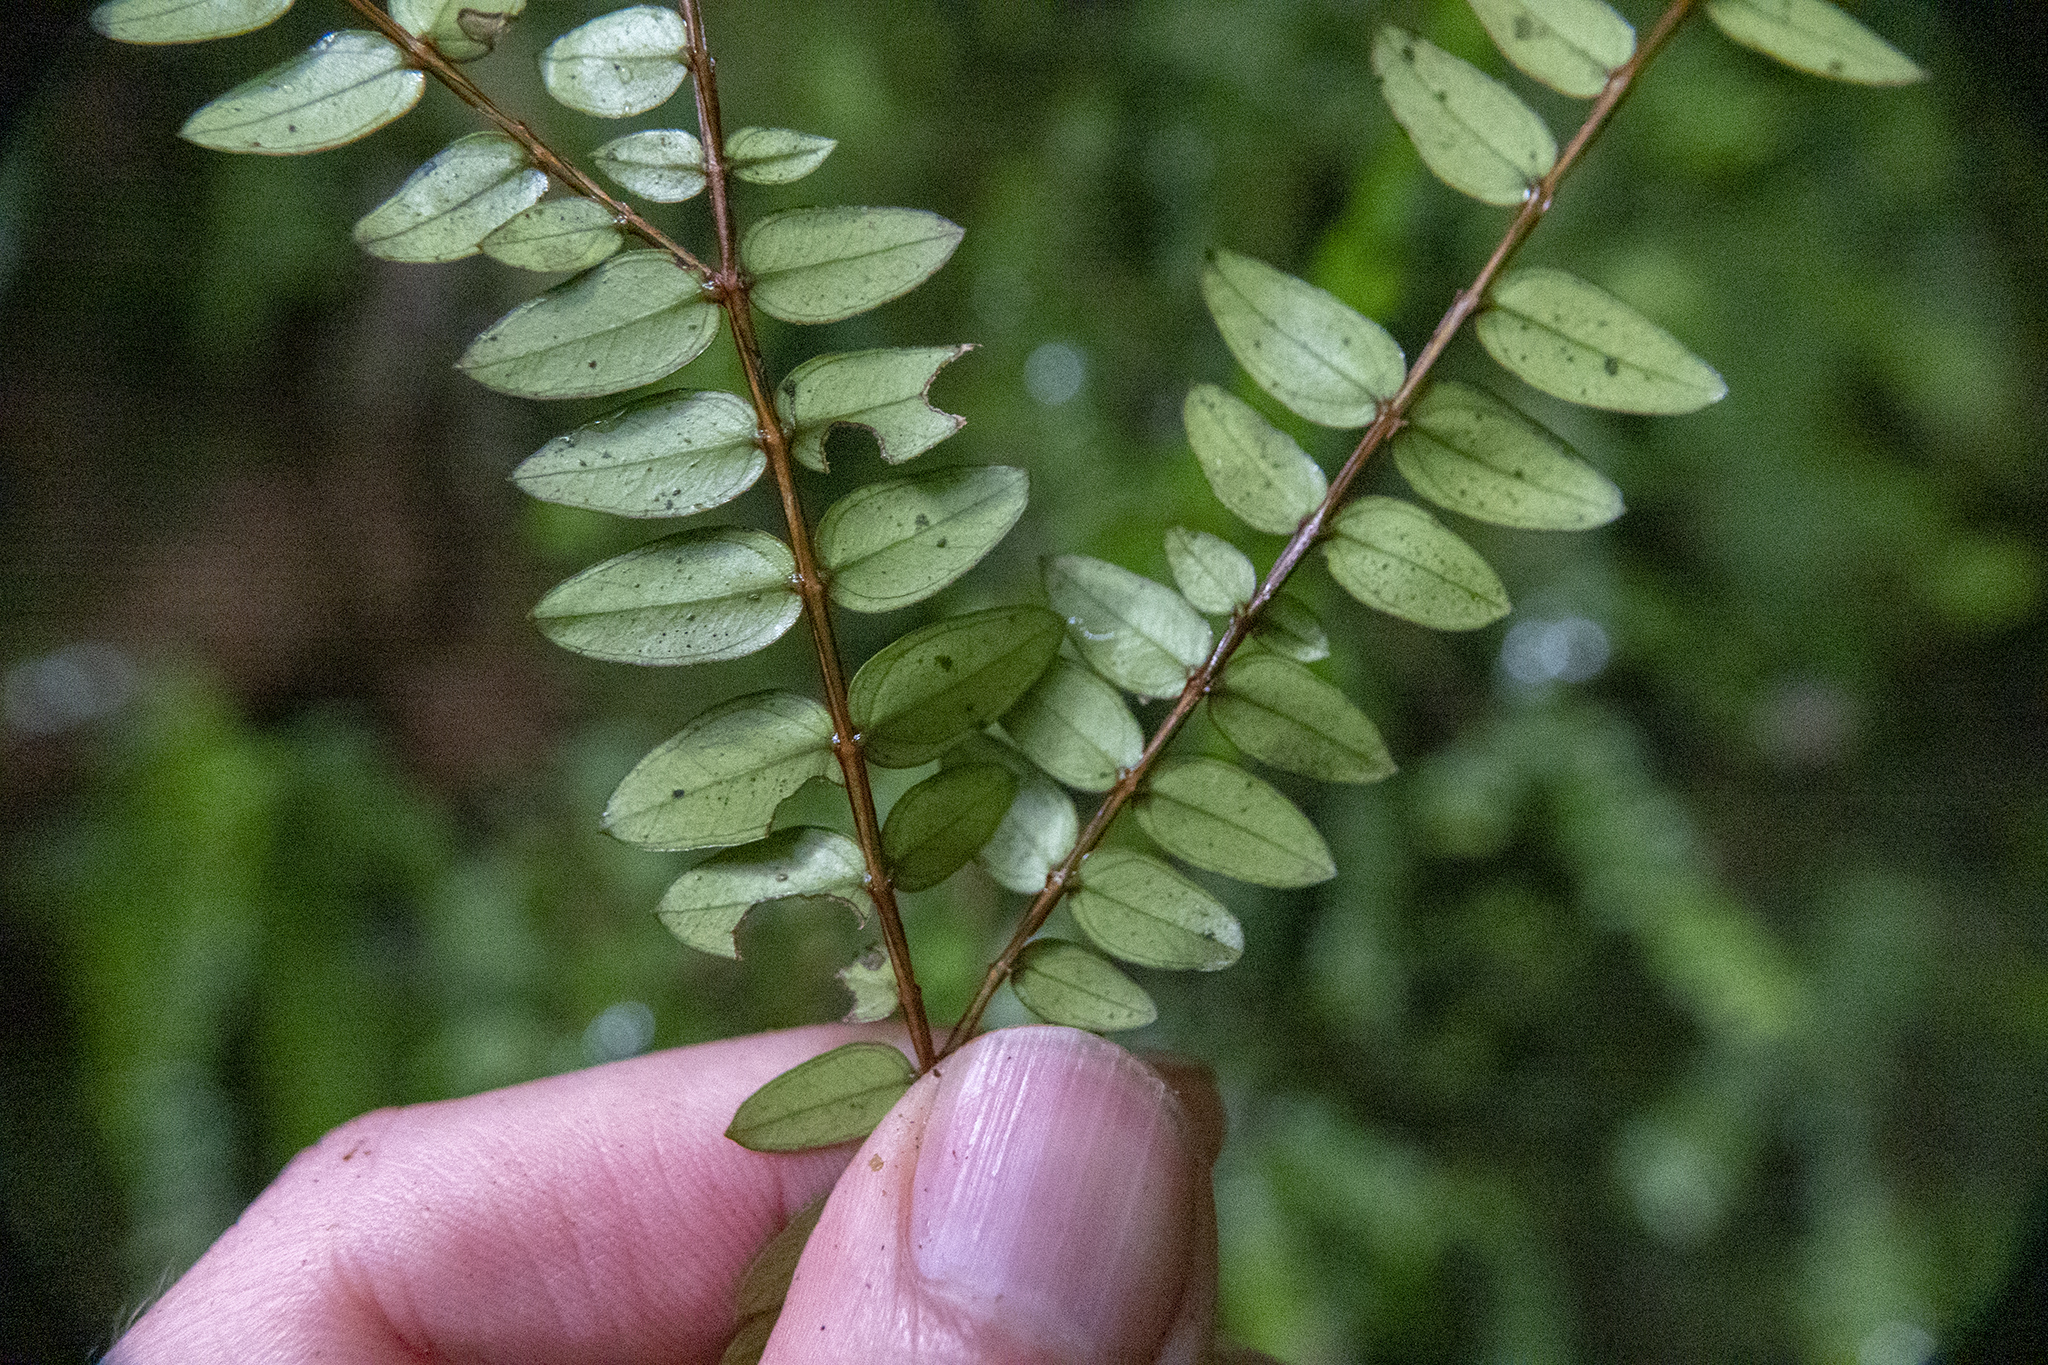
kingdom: Plantae
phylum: Tracheophyta
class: Magnoliopsida
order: Myrtales
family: Myrtaceae
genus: Metrosideros
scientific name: Metrosideros diffusa
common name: Small ratavine
